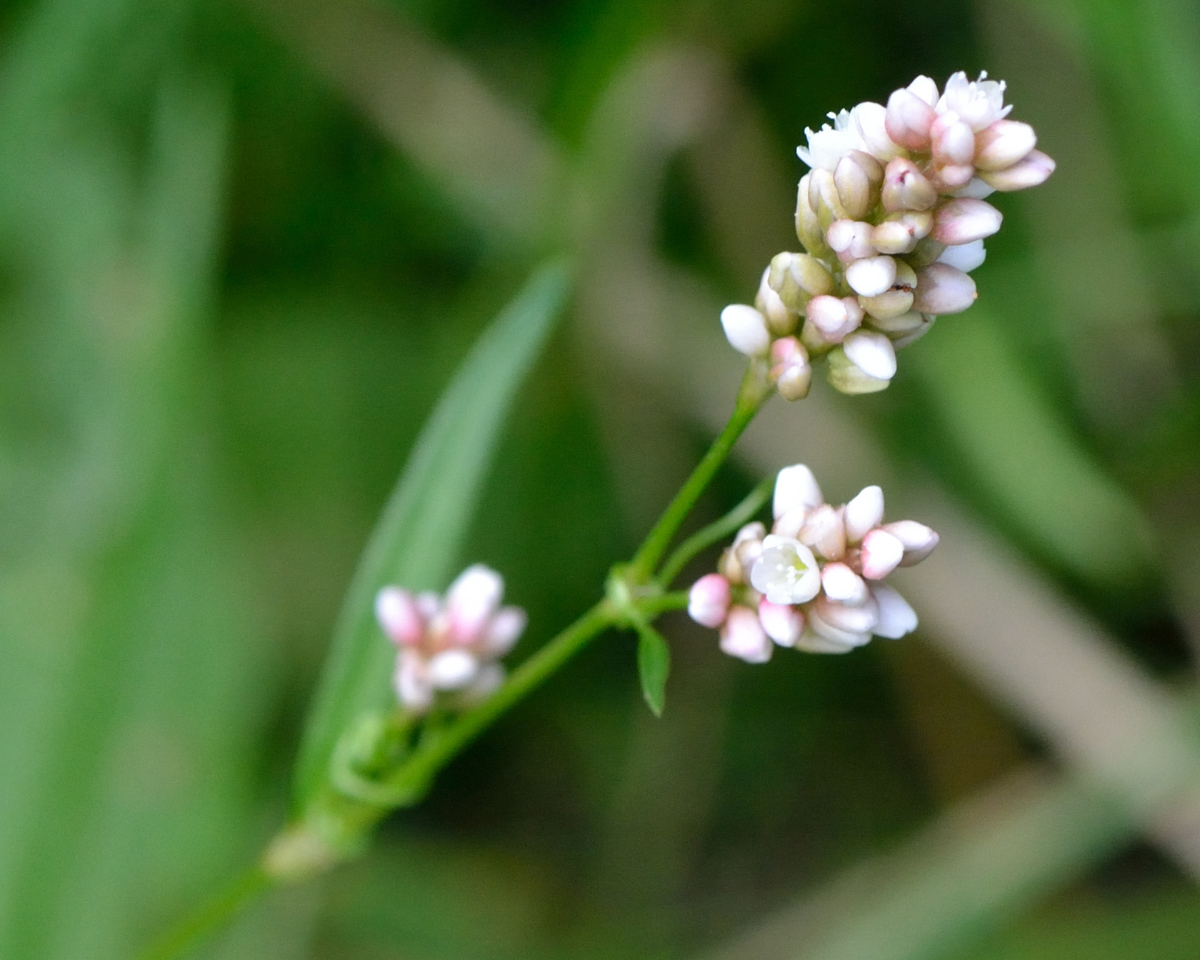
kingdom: Plantae
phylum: Tracheophyta
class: Magnoliopsida
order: Caryophyllales
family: Polygonaceae
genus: Persicaria
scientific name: Persicaria maculosa
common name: Redshank
